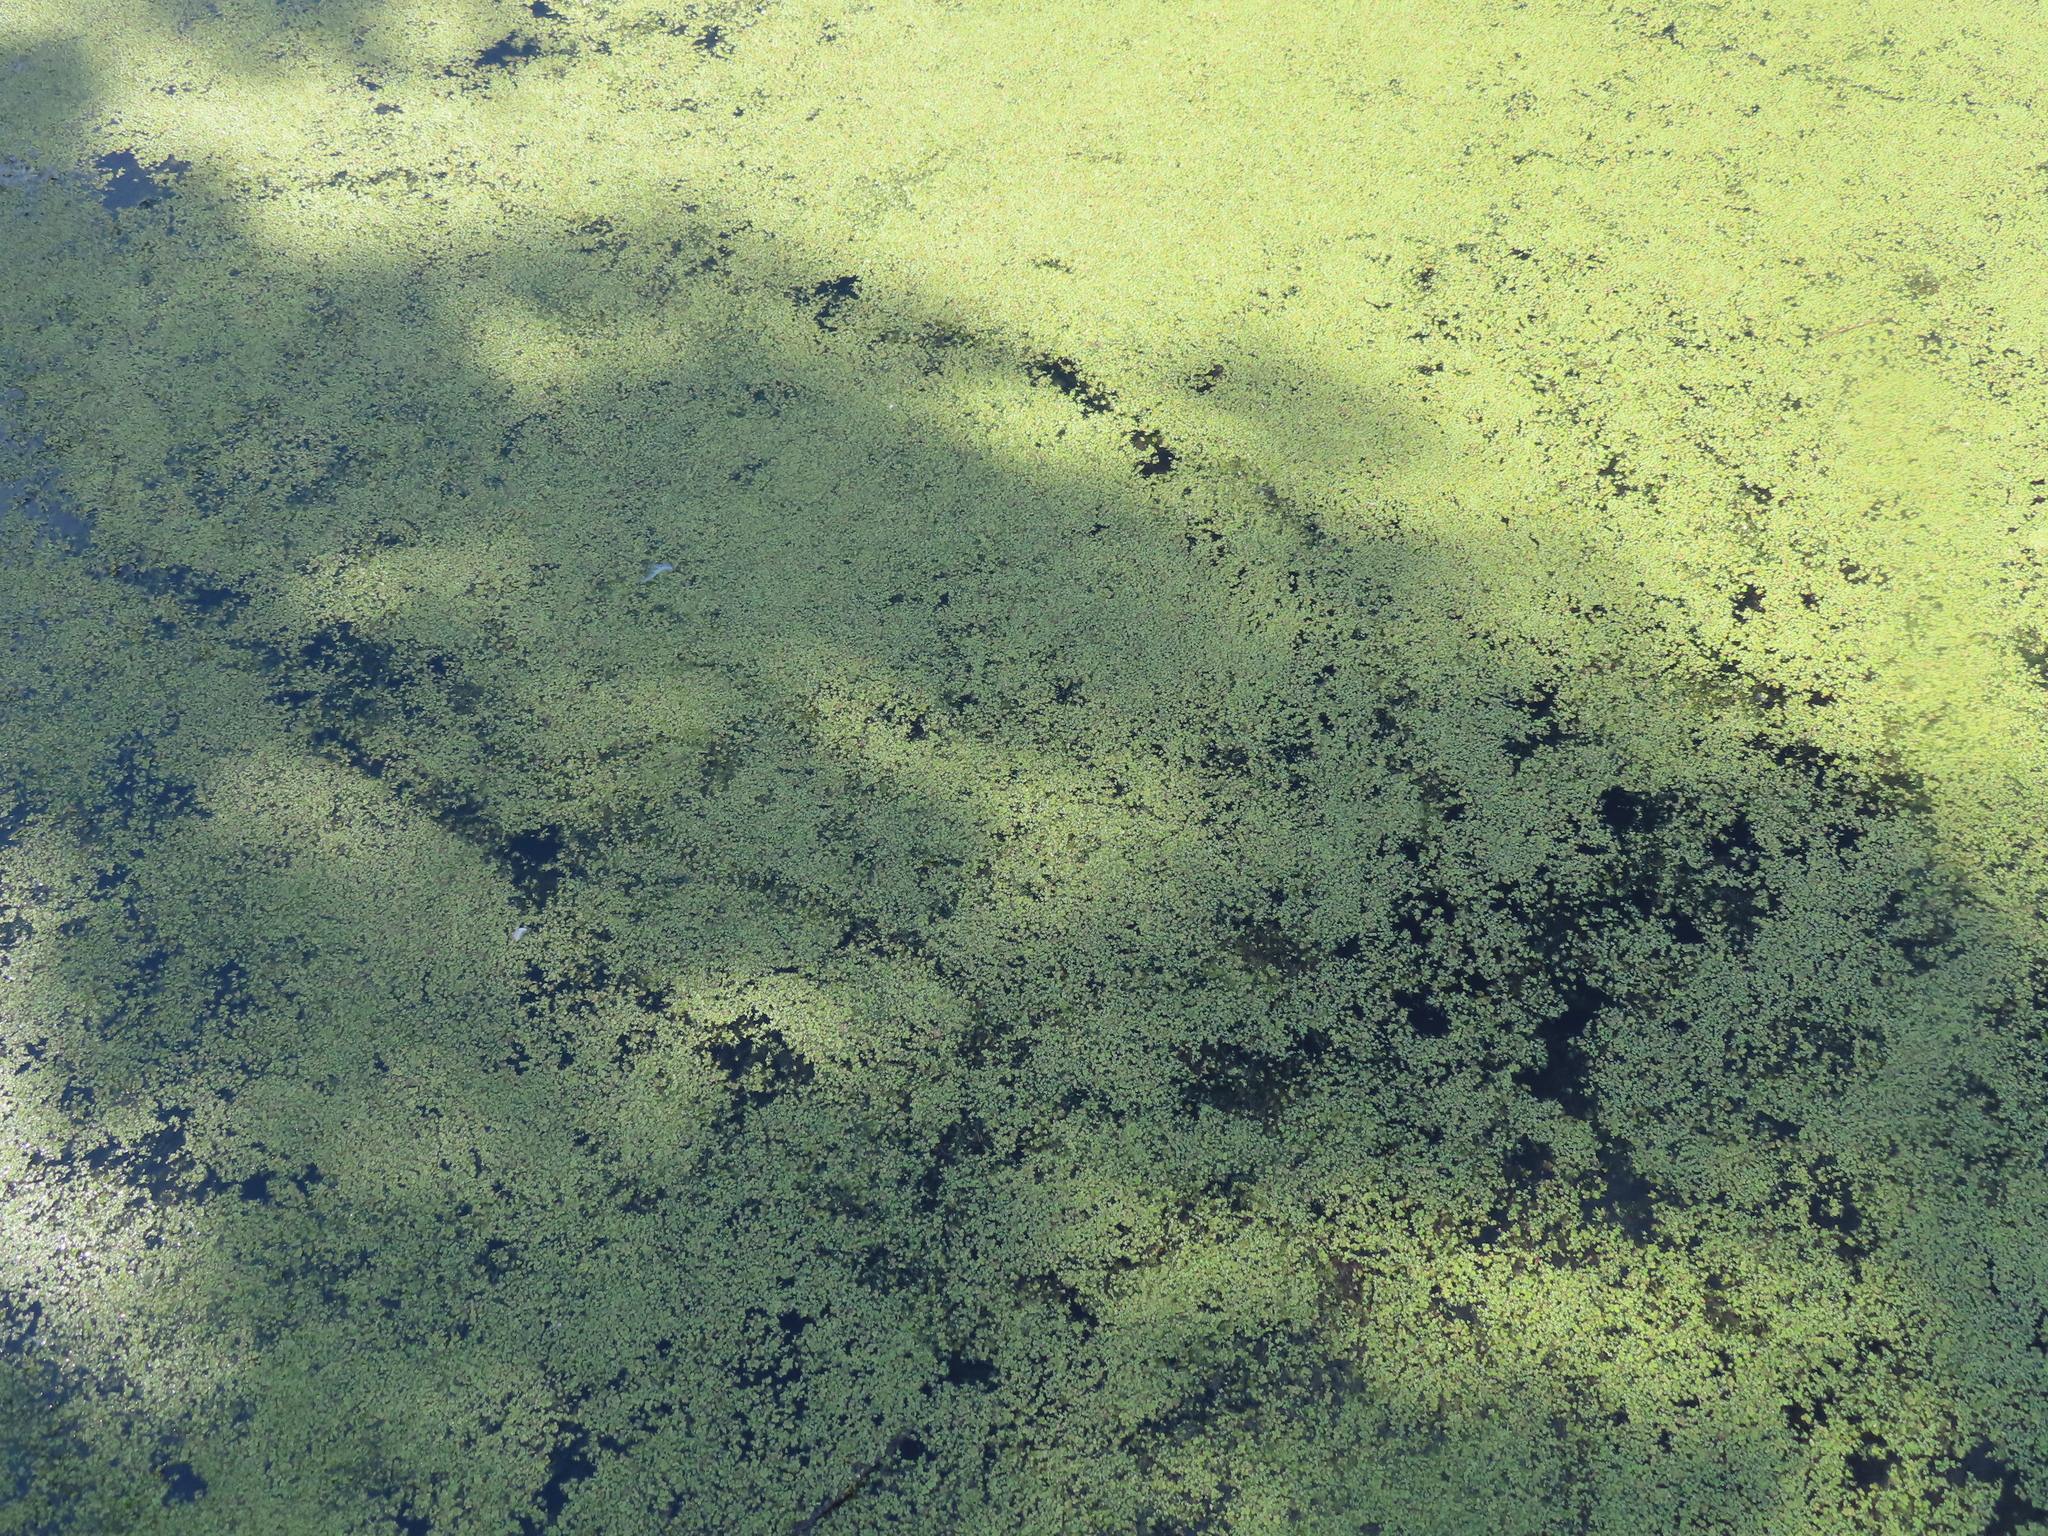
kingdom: Plantae
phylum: Tracheophyta
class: Liliopsida
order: Alismatales
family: Araceae
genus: Spirodela
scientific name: Spirodela polyrhiza
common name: Great duckweed
